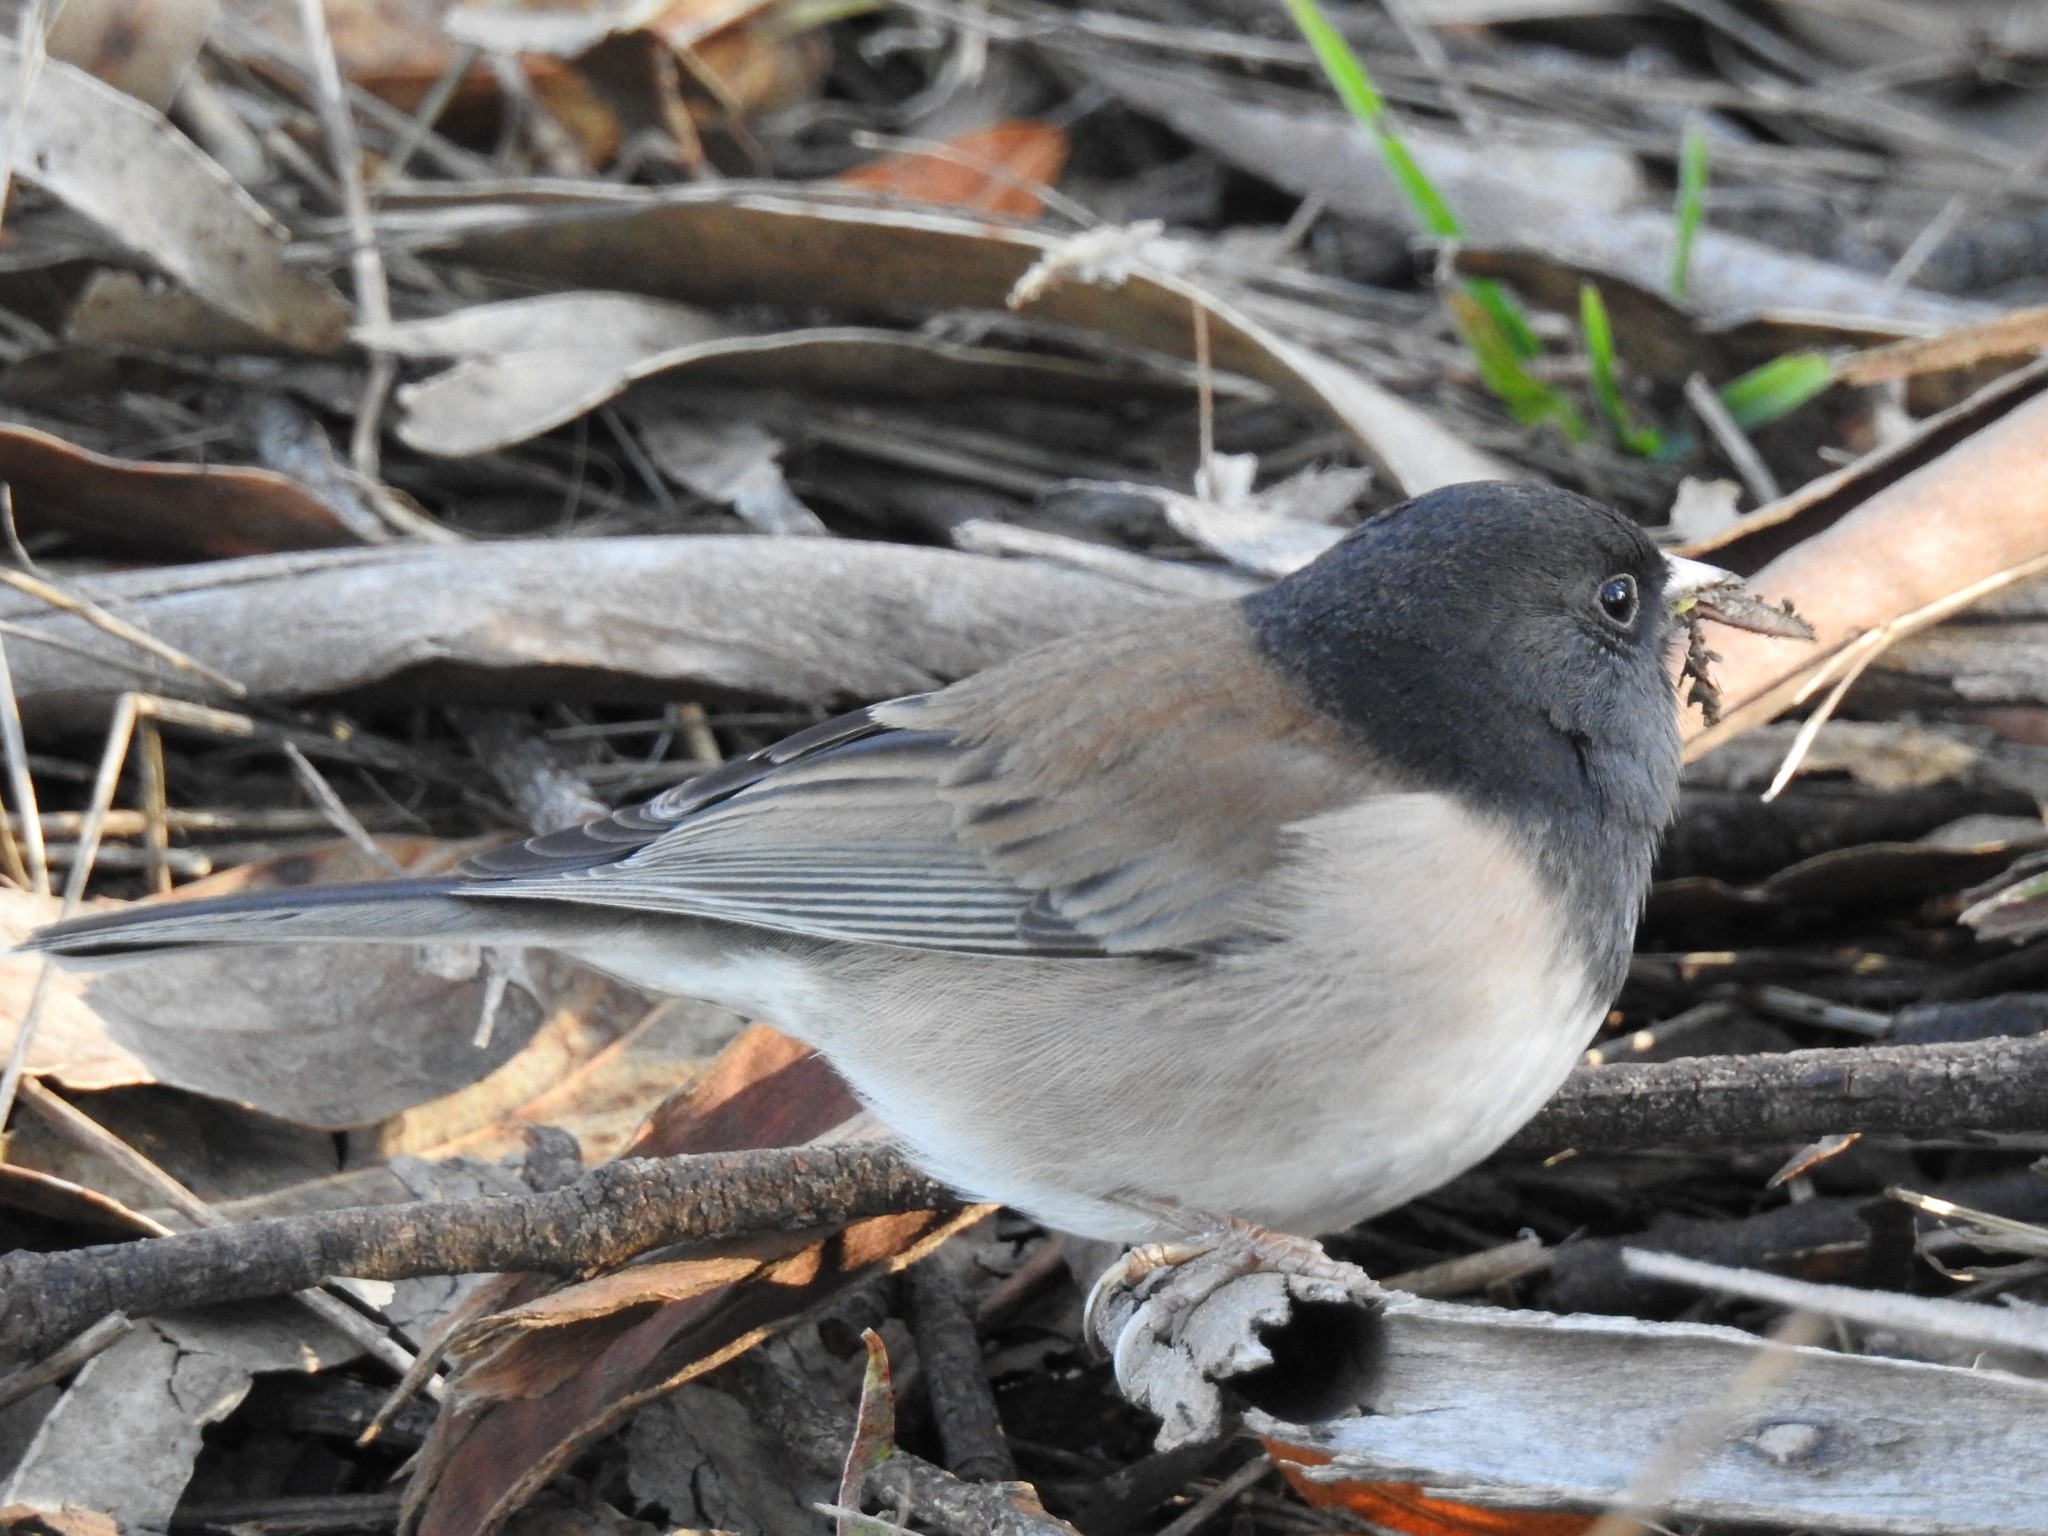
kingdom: Animalia
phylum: Chordata
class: Aves
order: Passeriformes
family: Passerellidae
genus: Junco
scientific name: Junco hyemalis
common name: Dark-eyed junco
